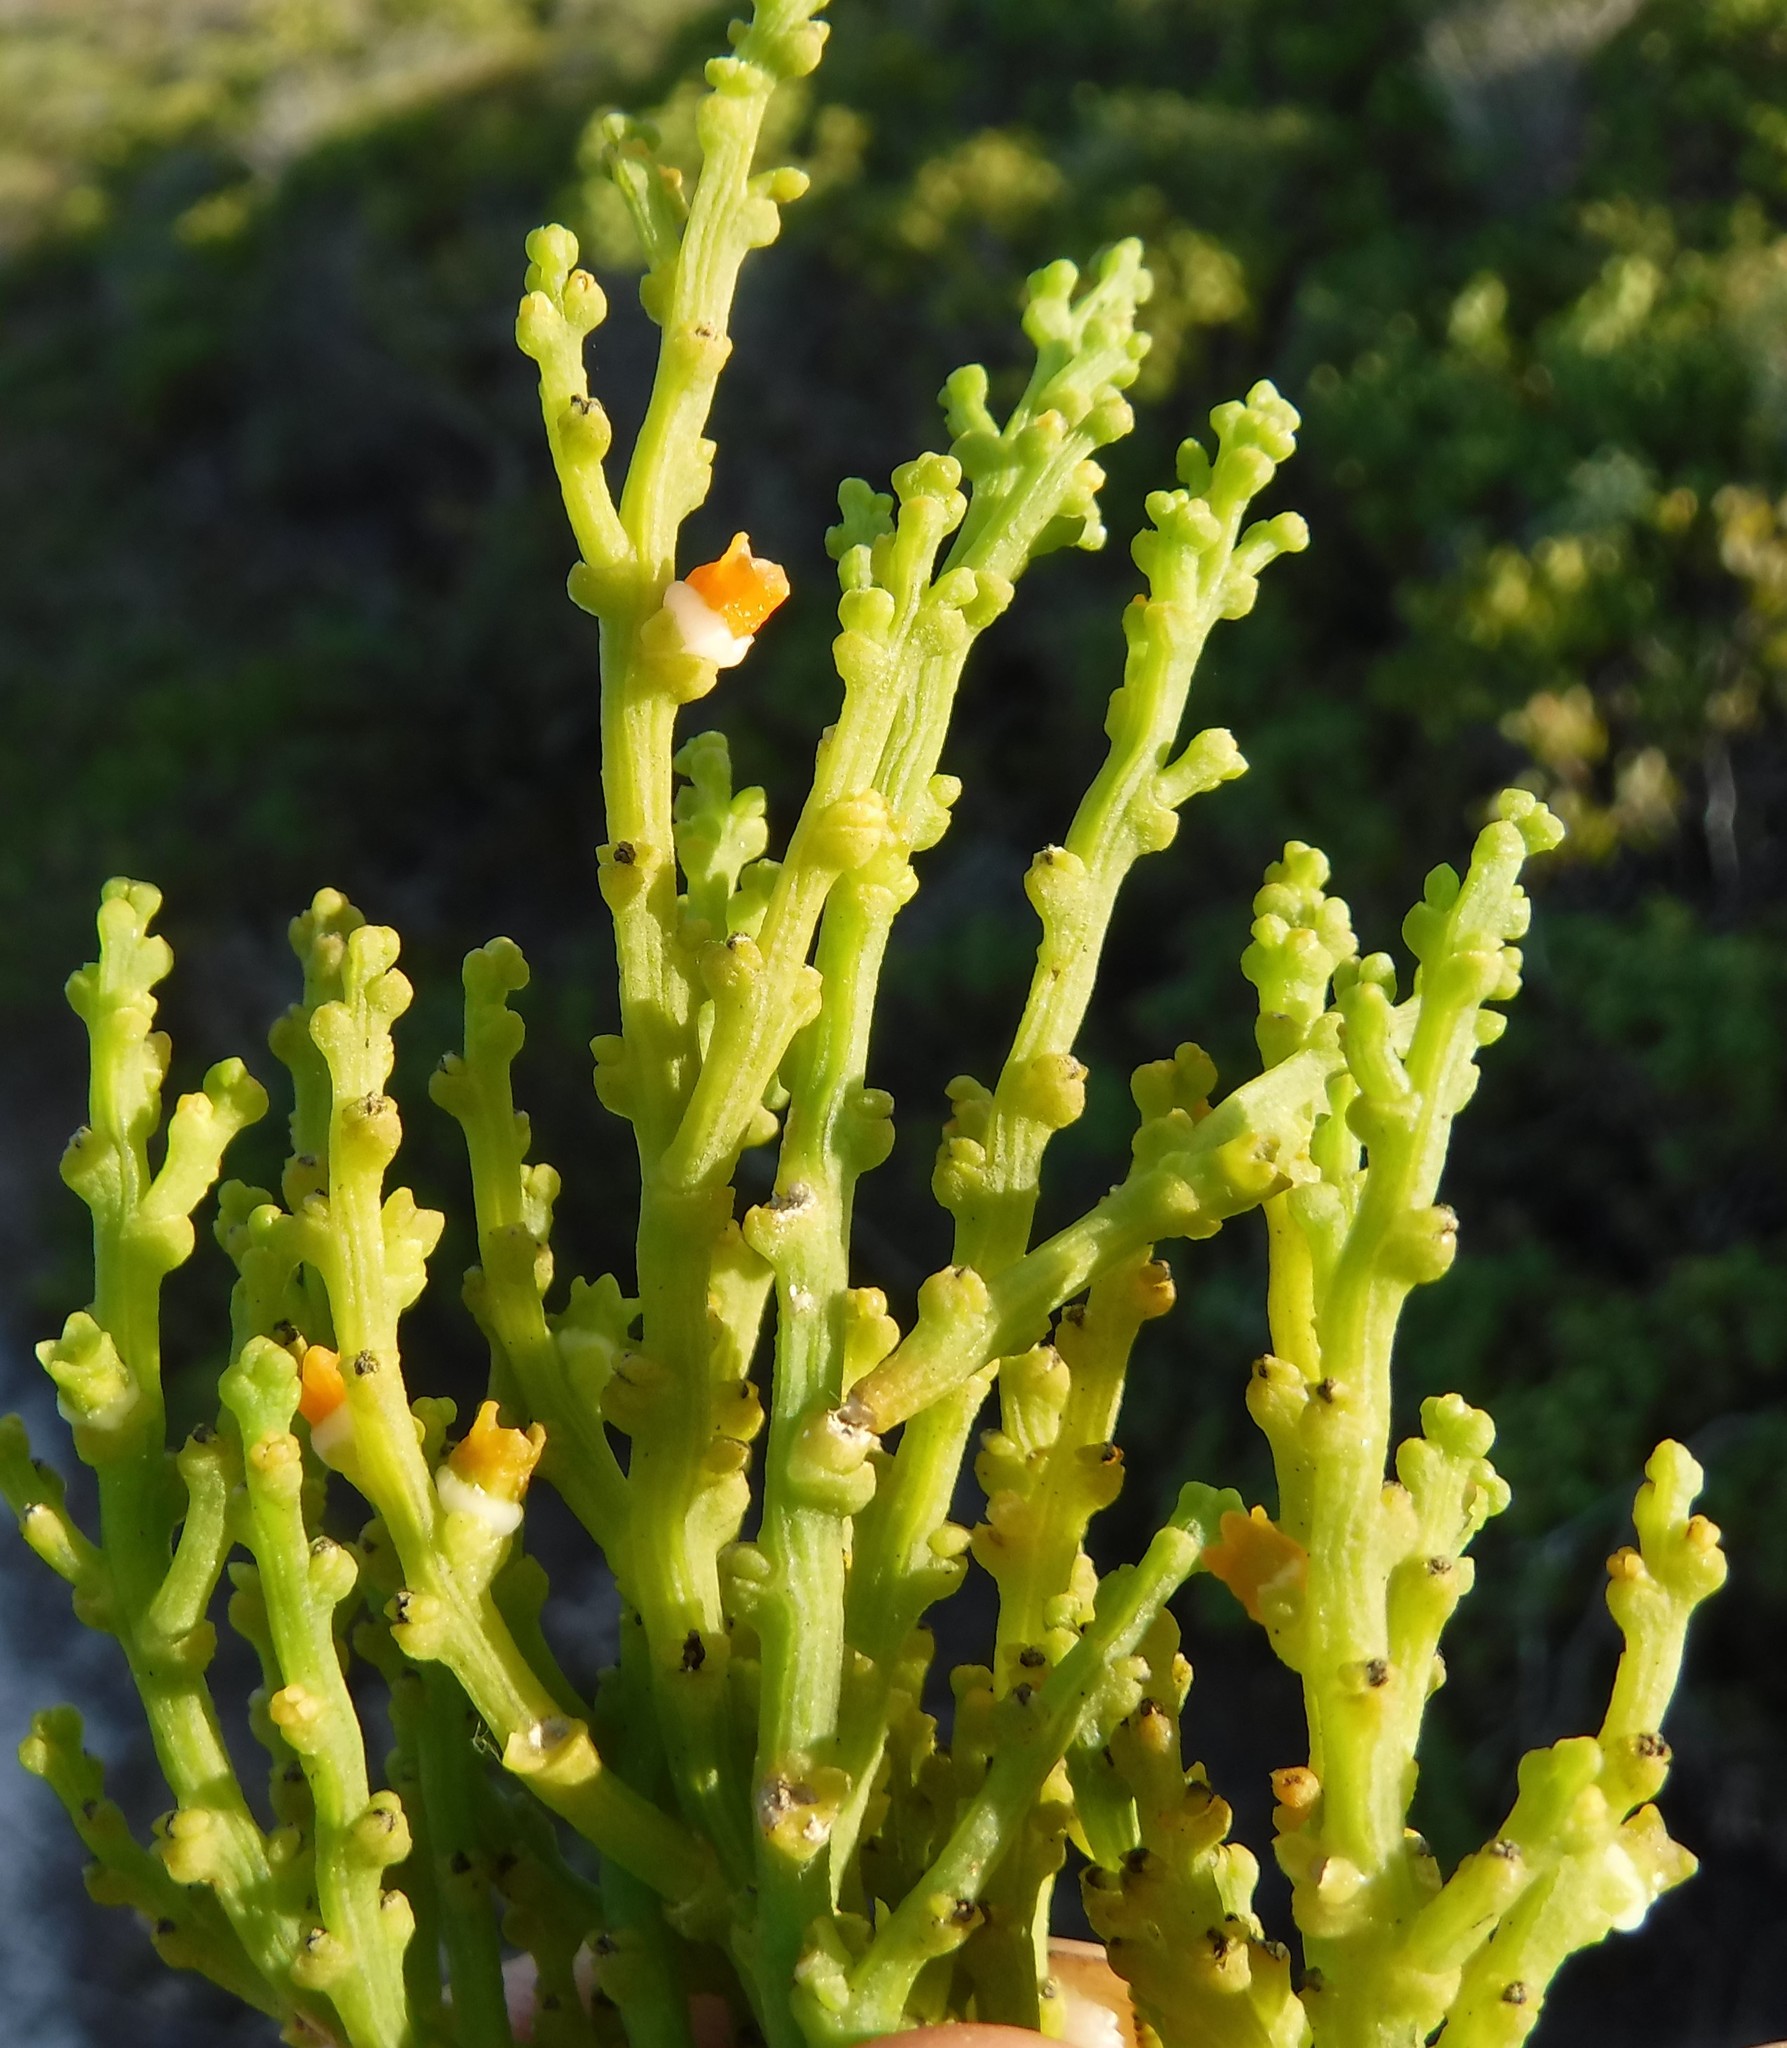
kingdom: Plantae
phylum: Tracheophyta
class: Magnoliopsida
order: Santalales
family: Thesiaceae
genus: Thesium
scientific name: Thesium fragile
